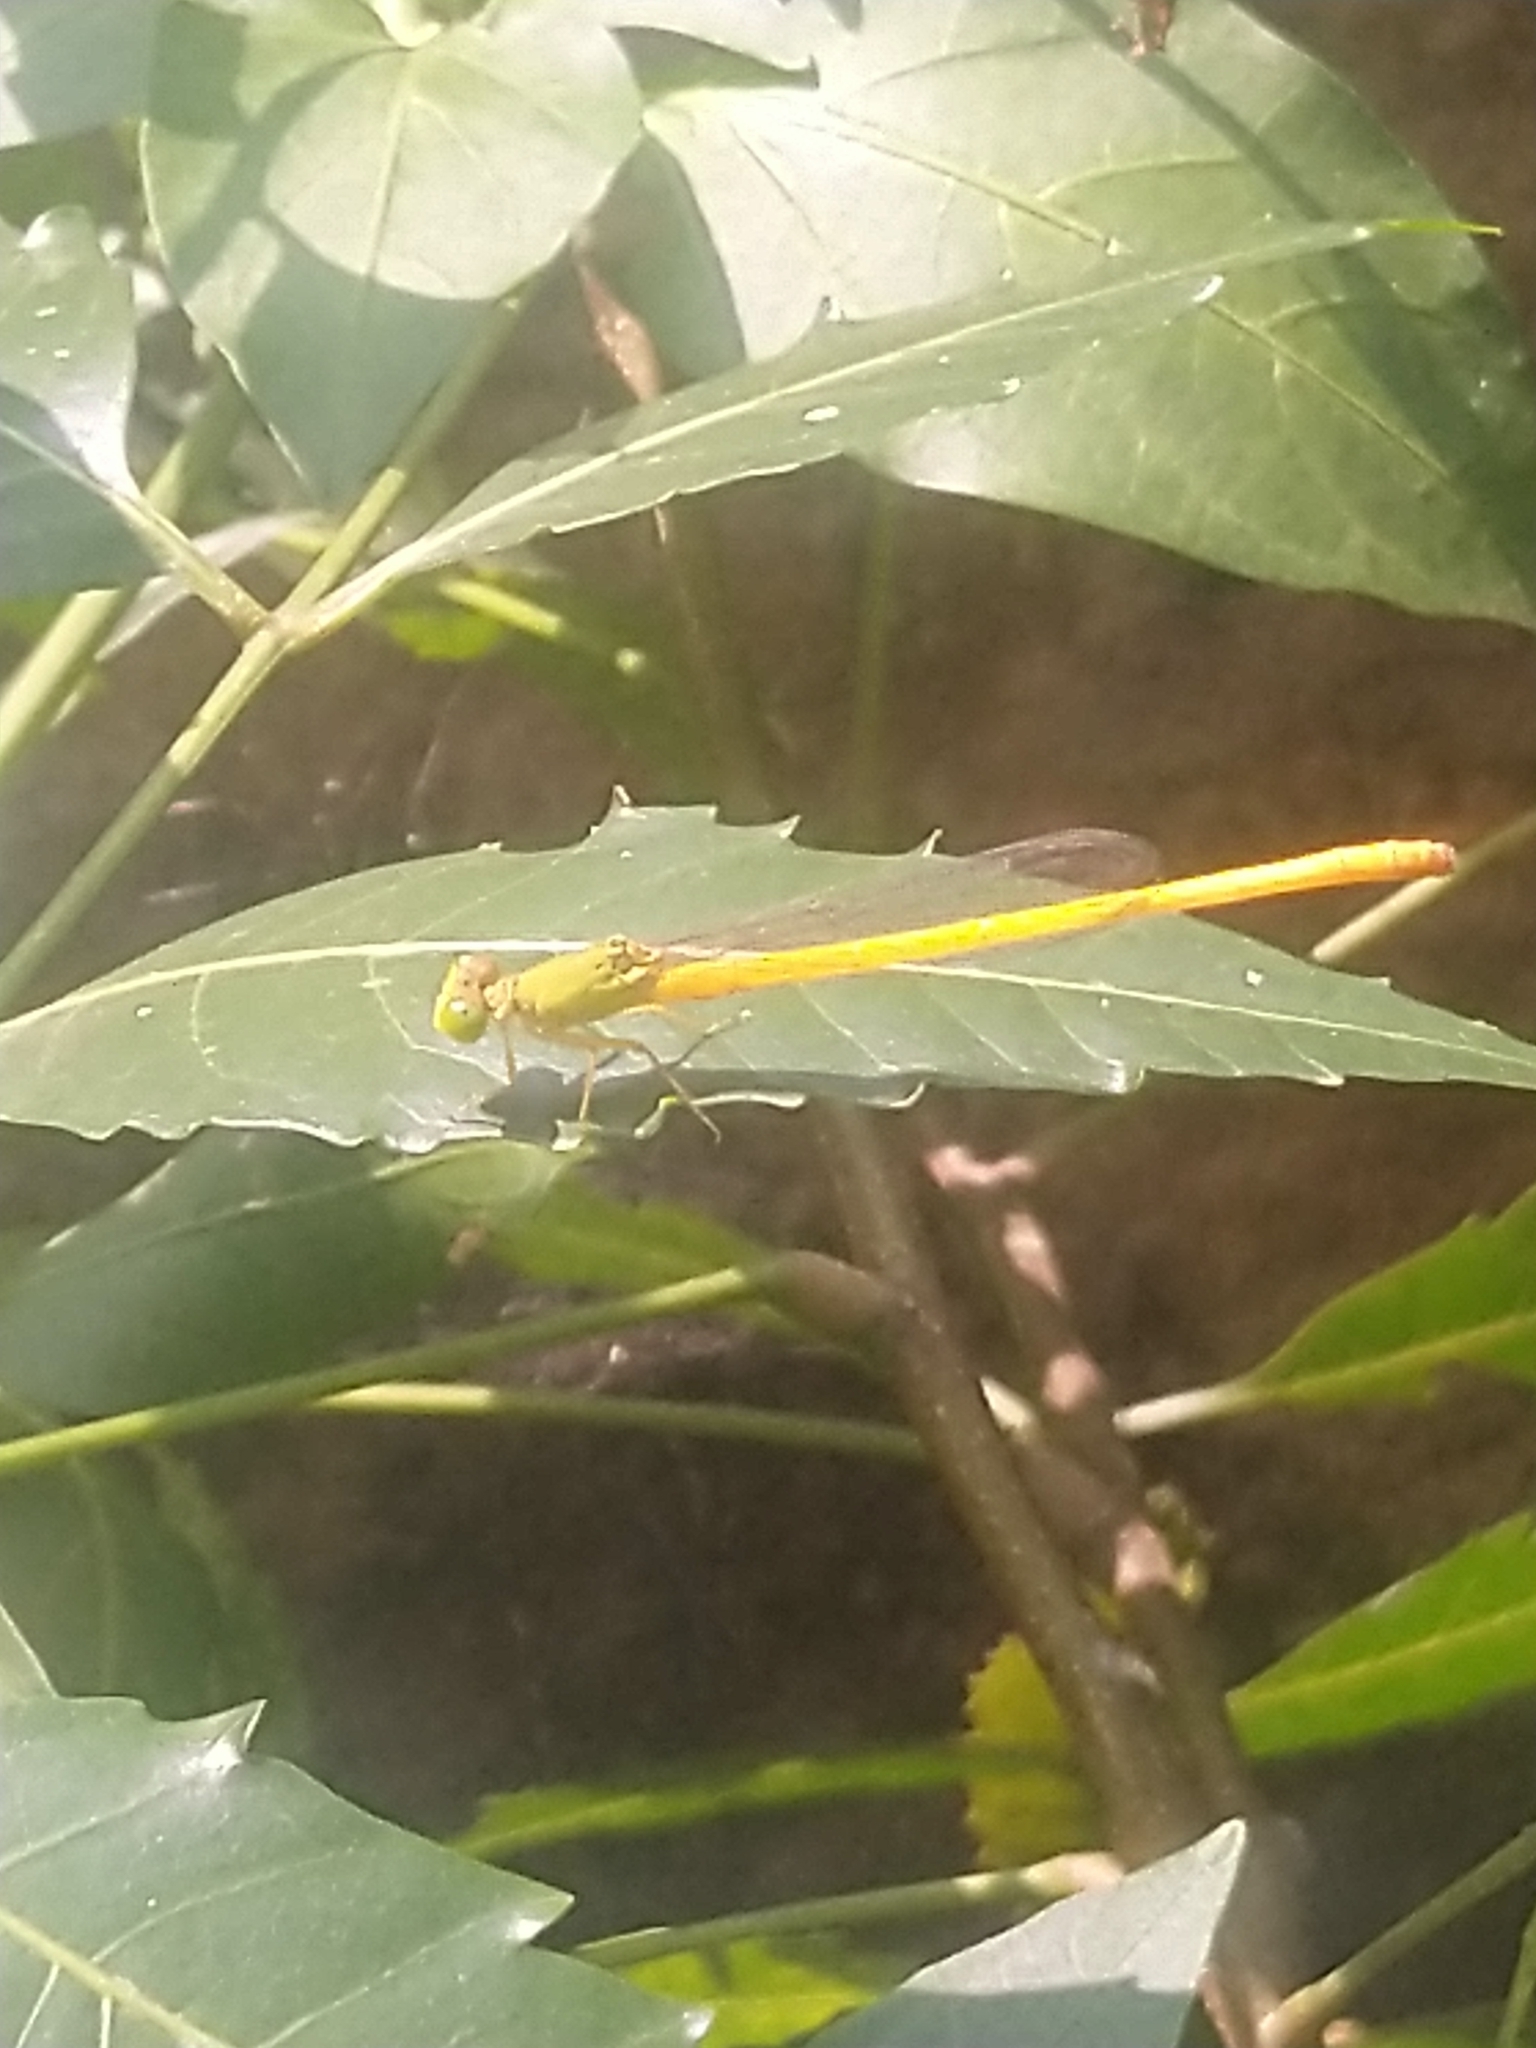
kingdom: Animalia
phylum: Arthropoda
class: Insecta
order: Odonata
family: Coenagrionidae
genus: Ceriagrion
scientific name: Ceriagrion coromandelianum
